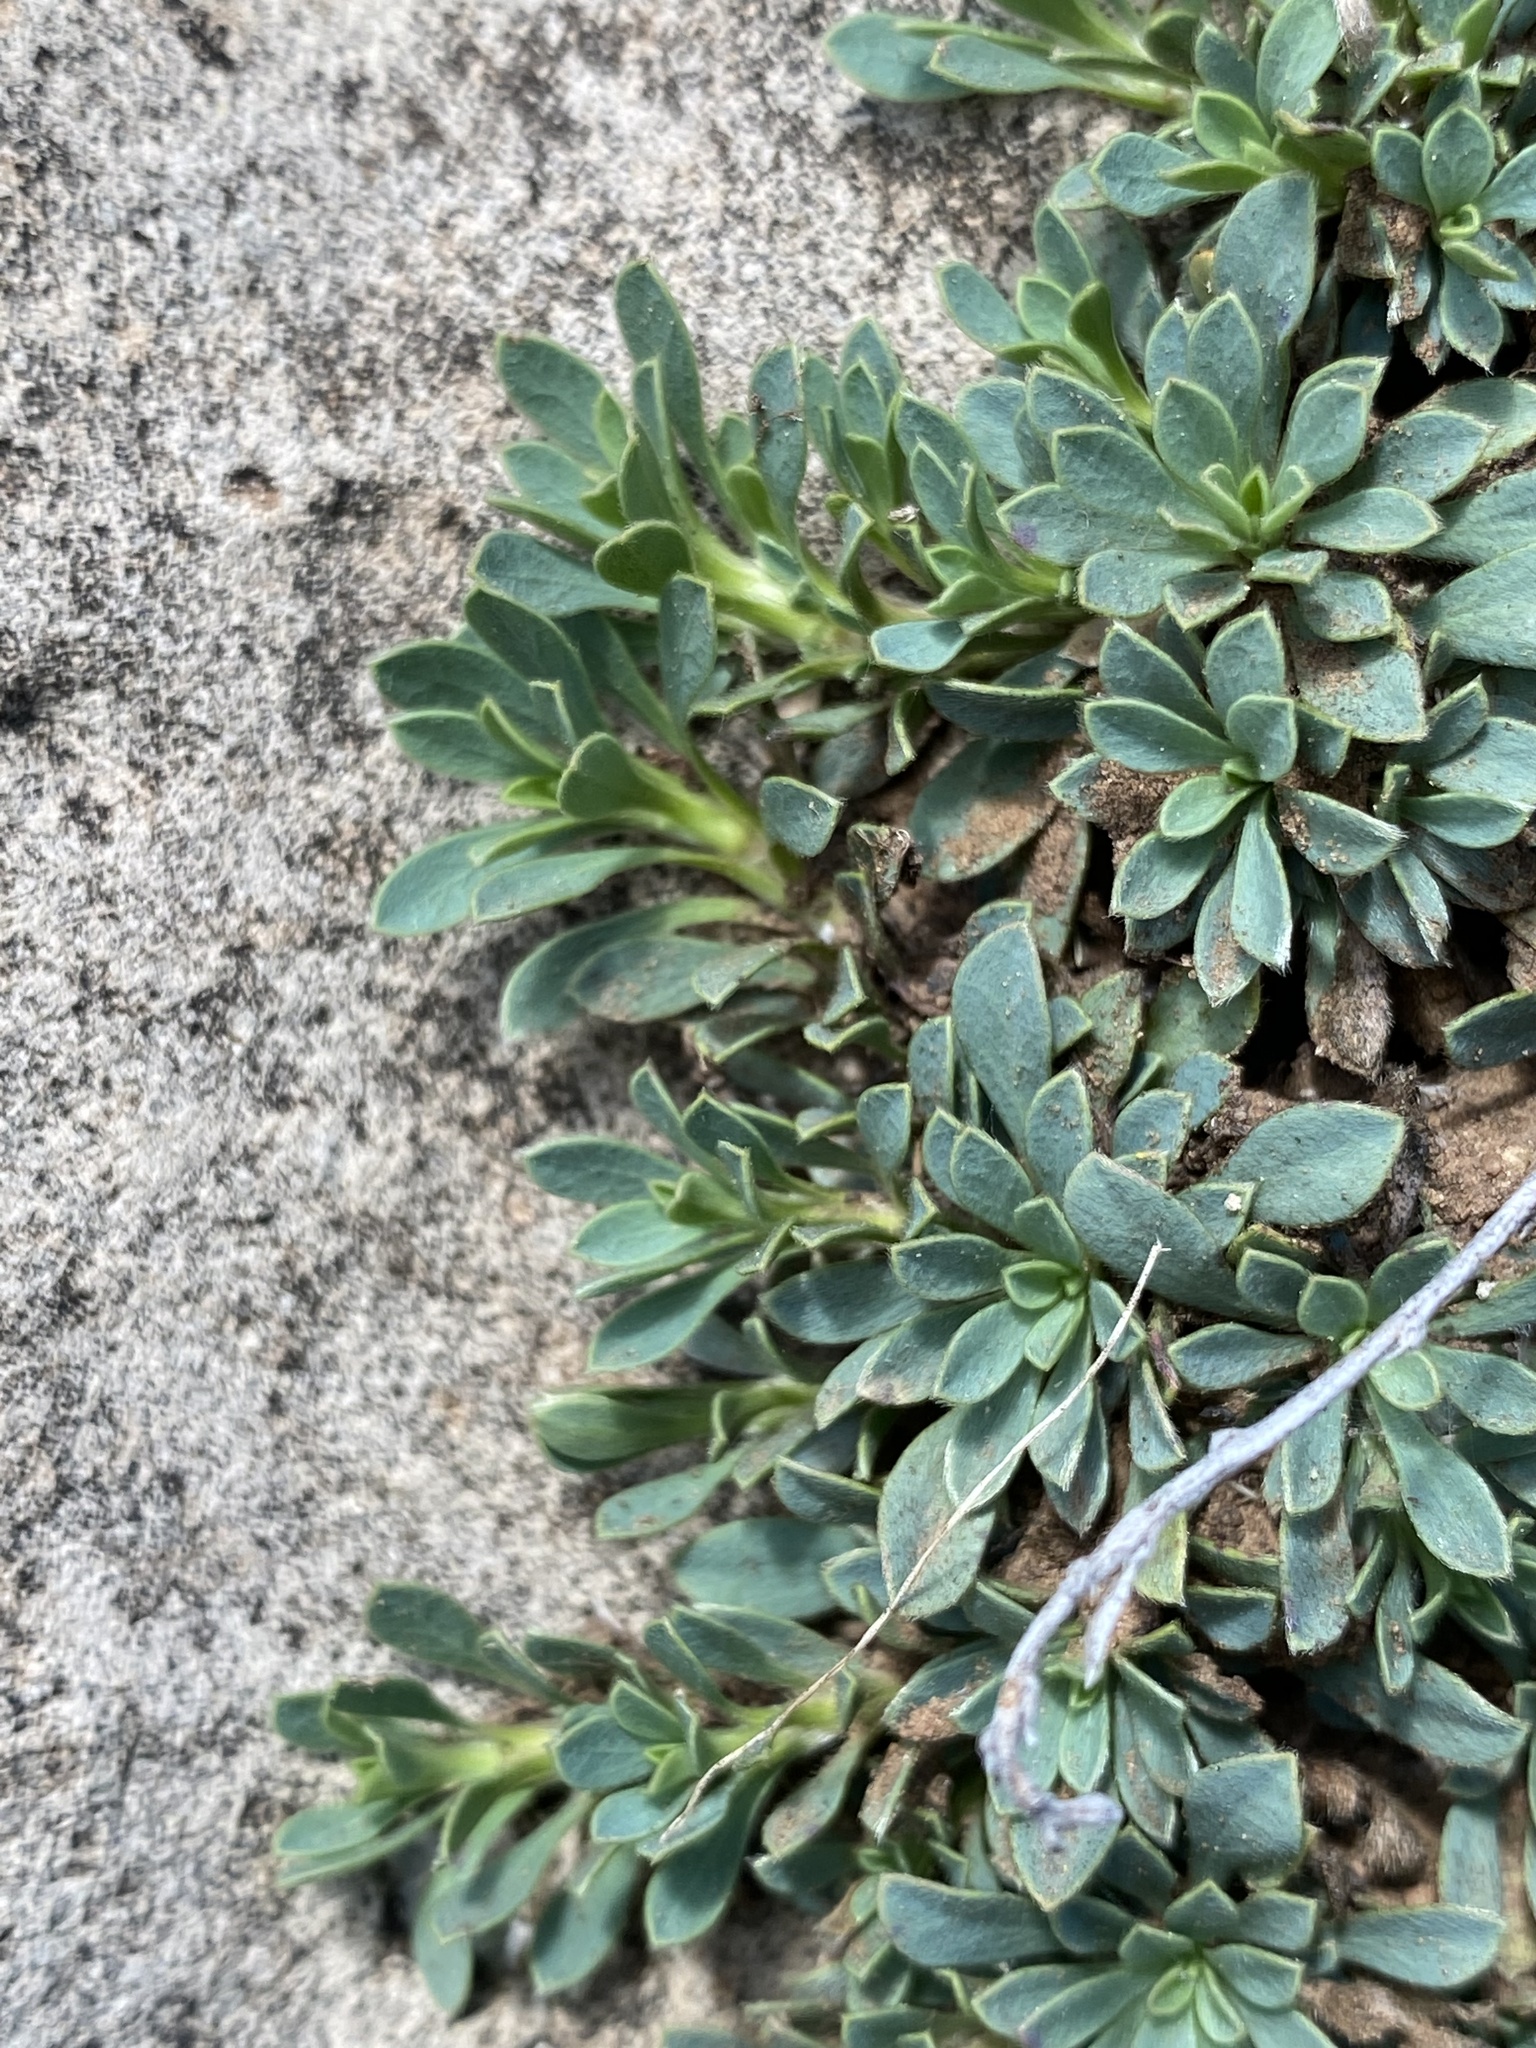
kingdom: Plantae
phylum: Tracheophyta
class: Magnoliopsida
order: Rosales
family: Rosaceae
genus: Petrophytum
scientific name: Petrophytum caespitosum
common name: Mat rockspirea
